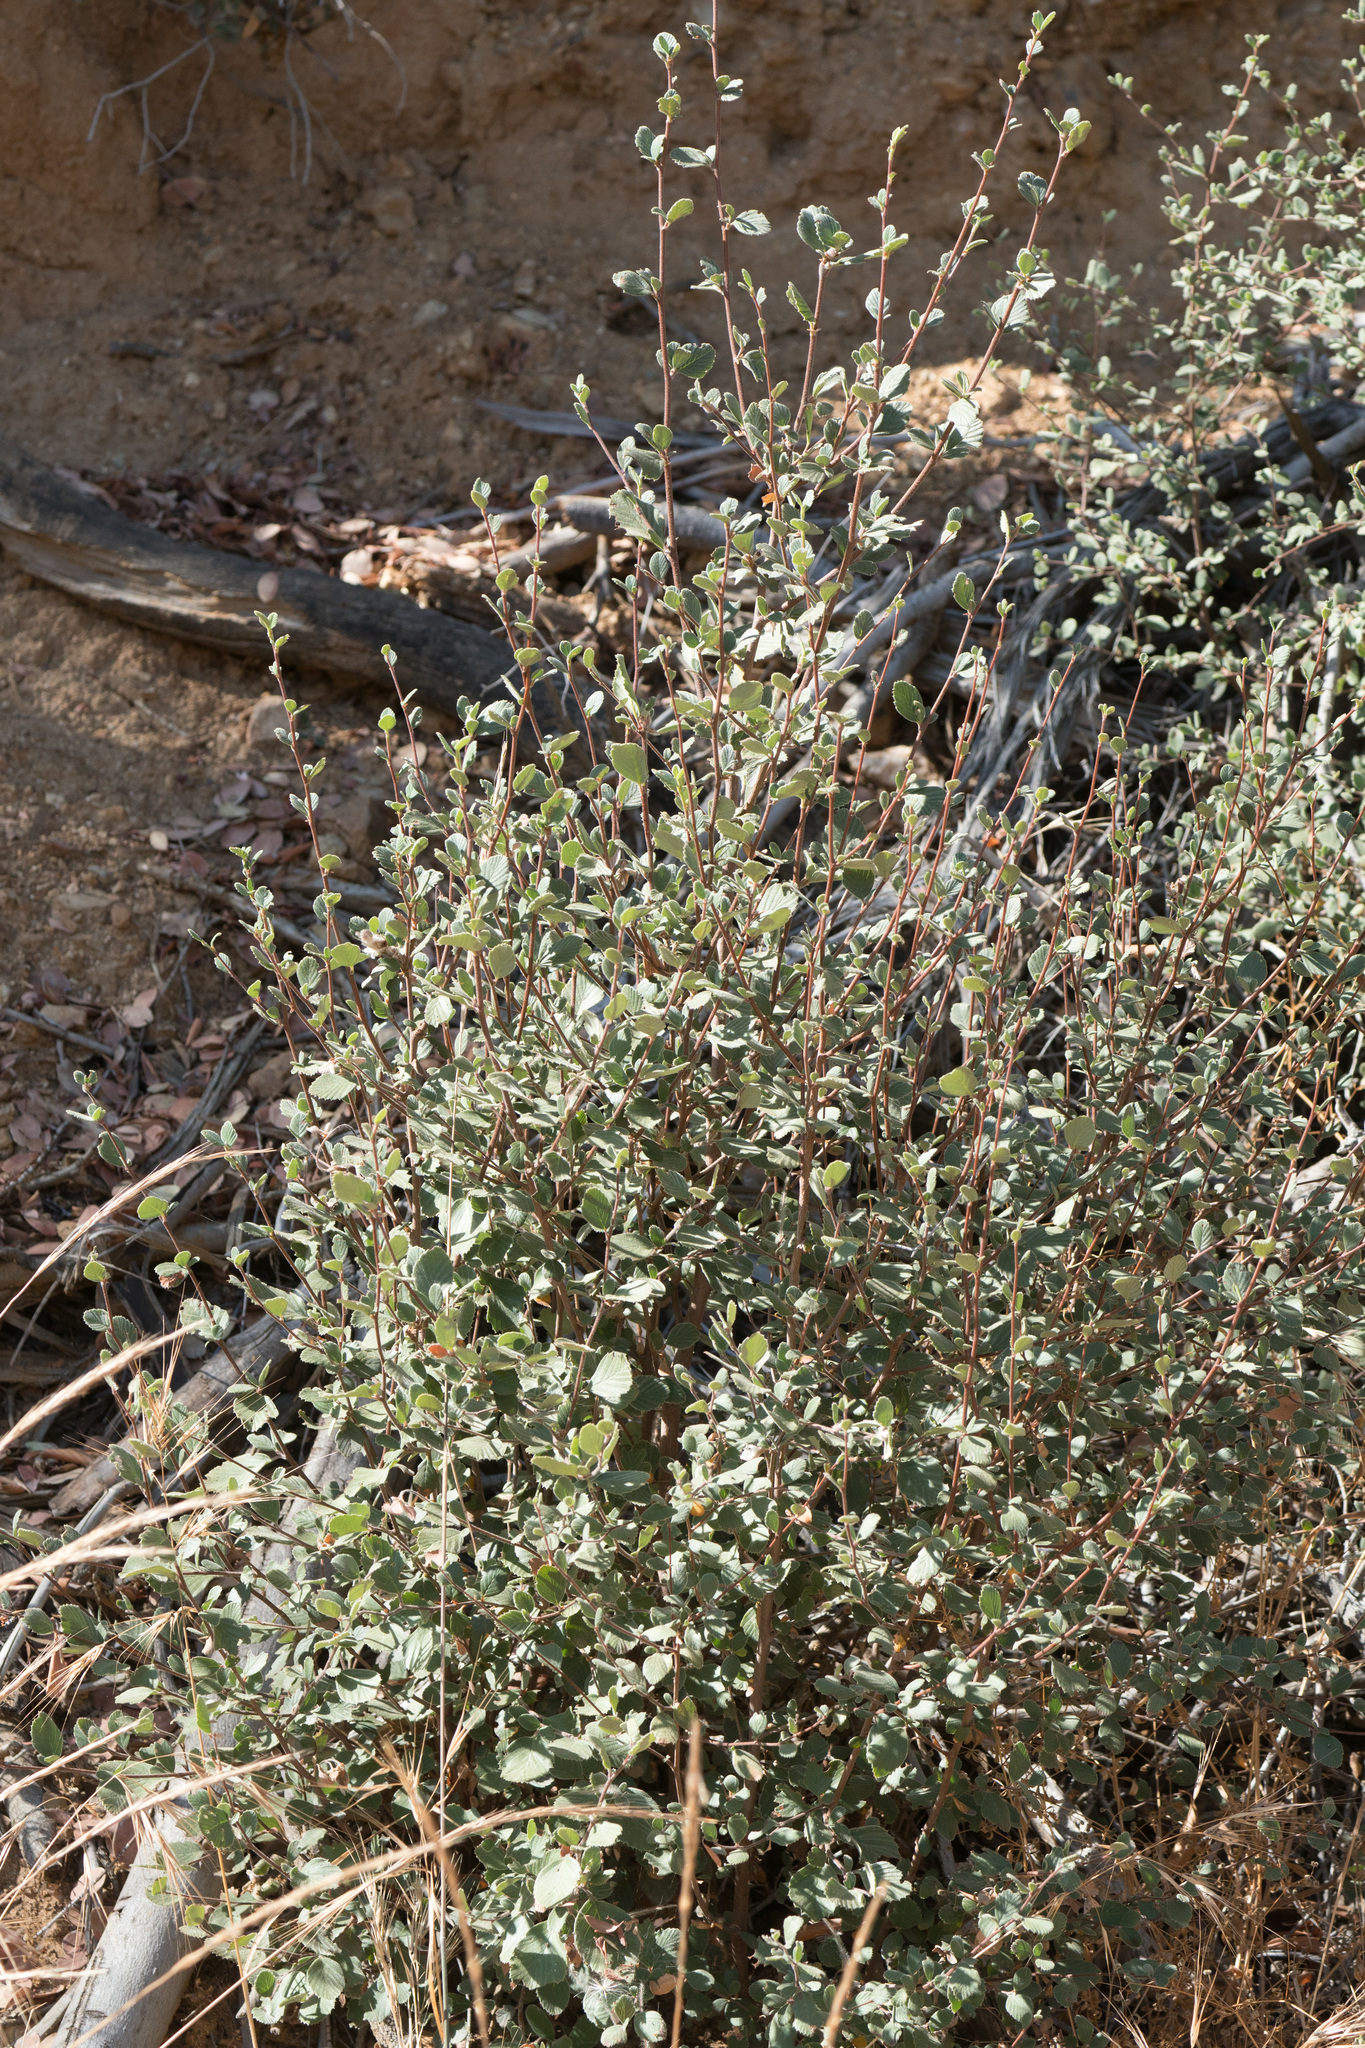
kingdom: Plantae
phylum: Tracheophyta
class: Magnoliopsida
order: Rosales
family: Rosaceae
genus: Cercocarpus
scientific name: Cercocarpus betuloides
